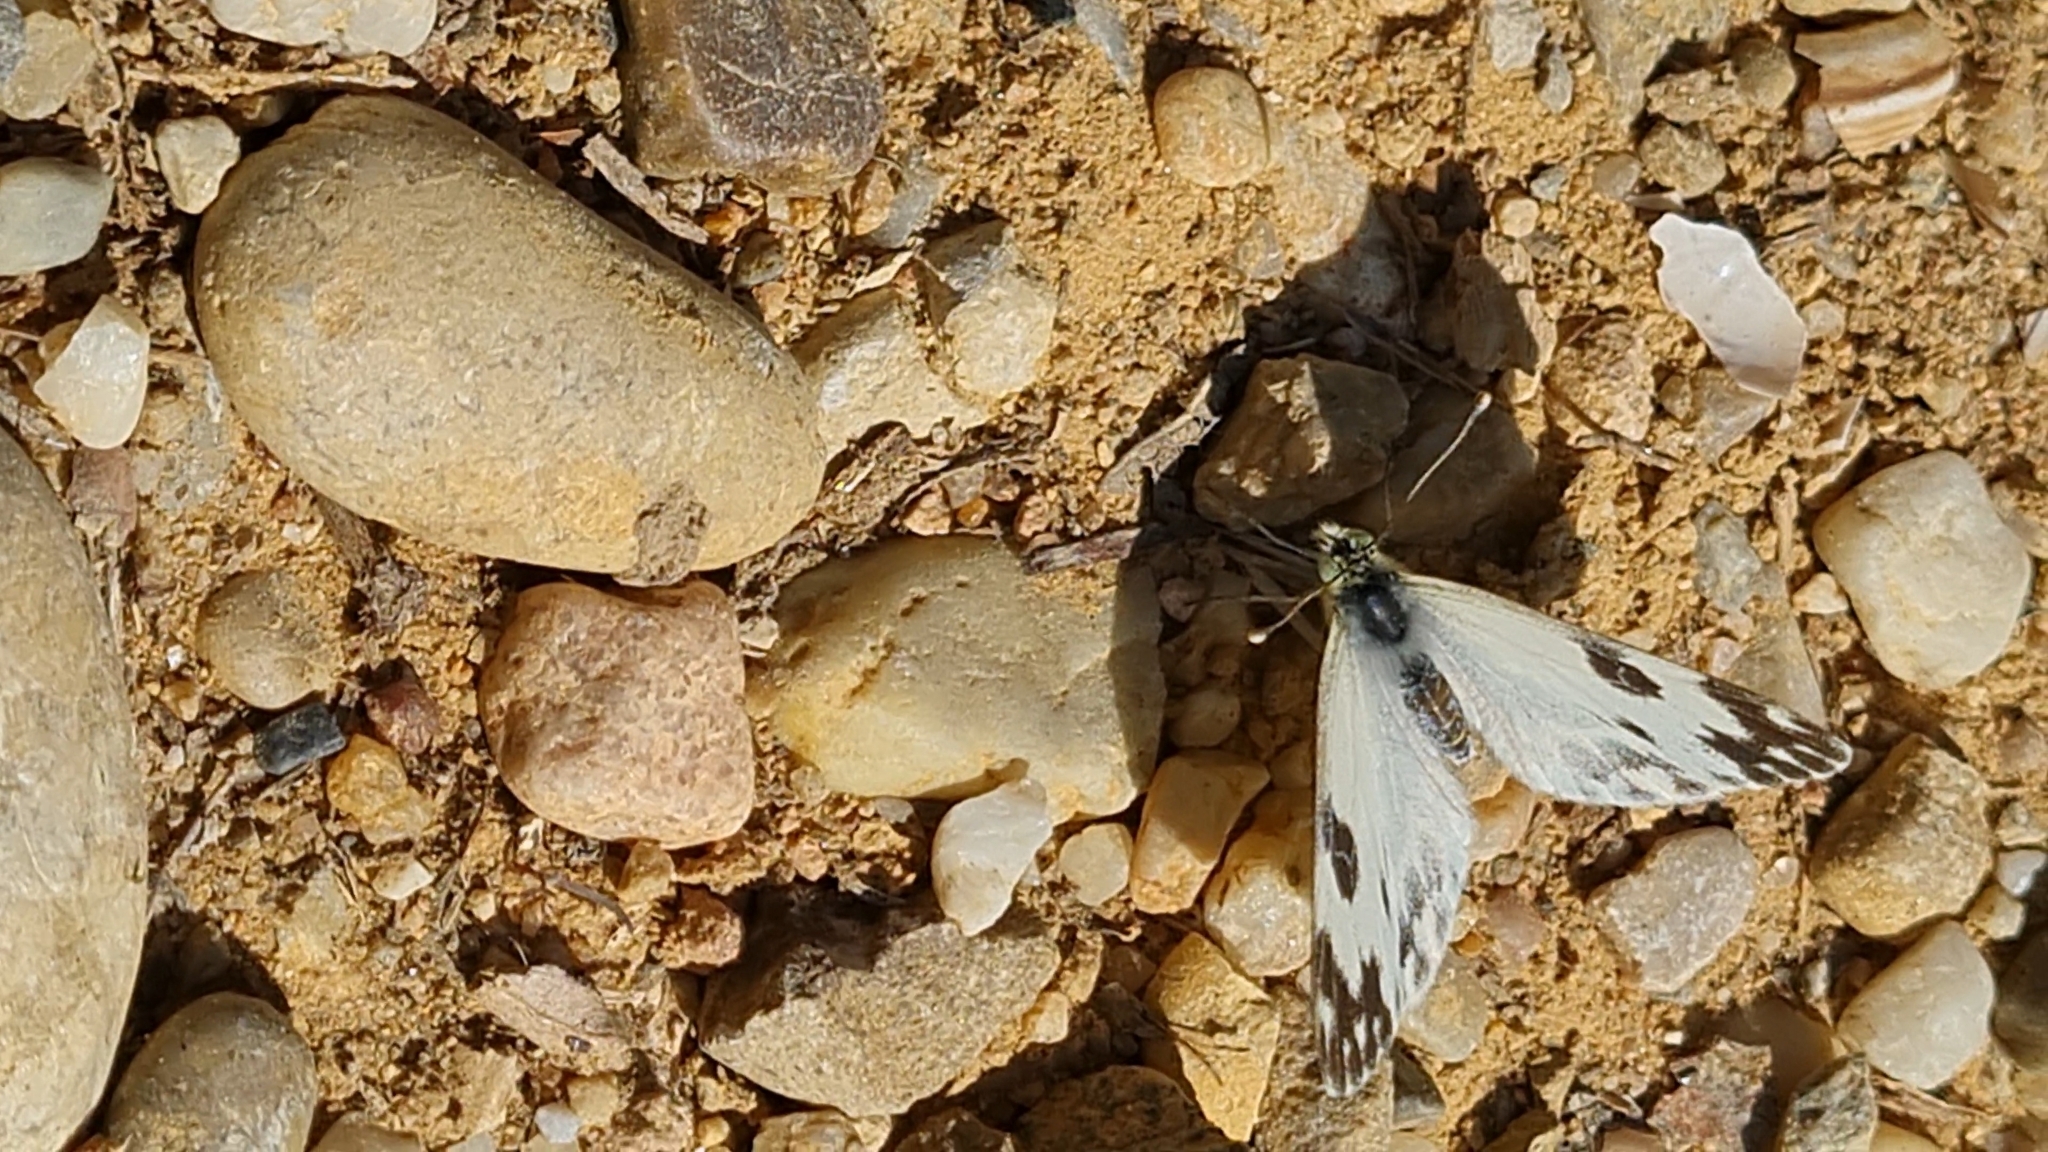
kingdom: Animalia
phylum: Arthropoda
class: Insecta
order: Lepidoptera
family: Pieridae
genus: Pontia
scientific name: Pontia daplidice
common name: Bath white
